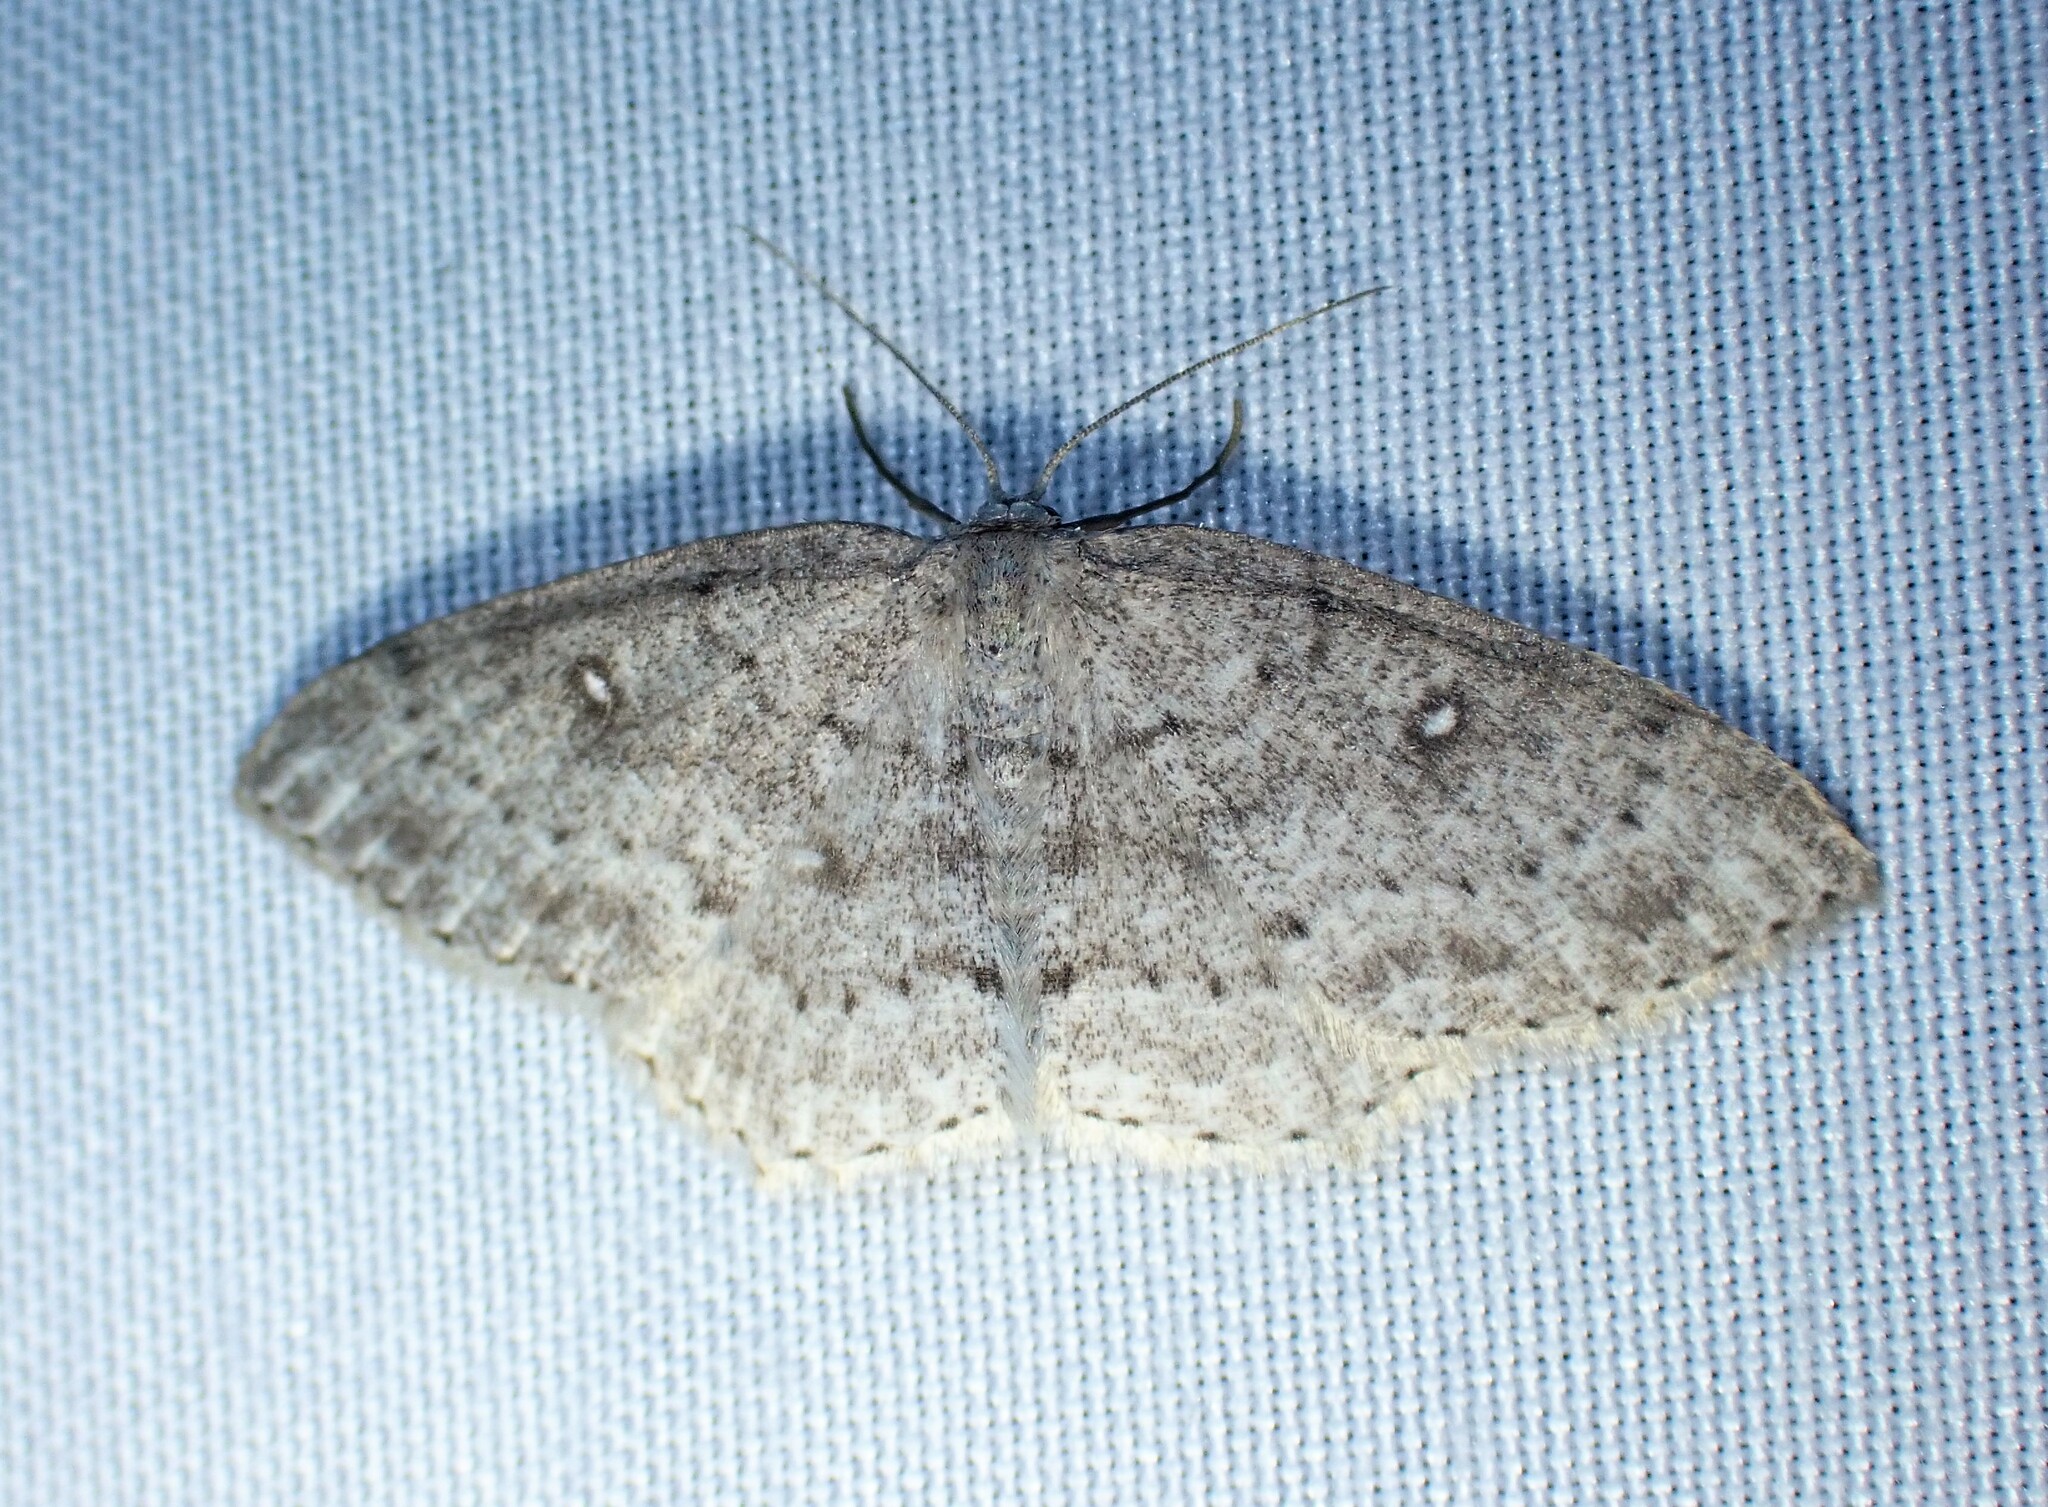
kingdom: Animalia
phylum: Arthropoda
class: Insecta
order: Lepidoptera
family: Geometridae
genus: Cyclophora
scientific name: Cyclophora pendulinaria
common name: Sweet fern geometer
